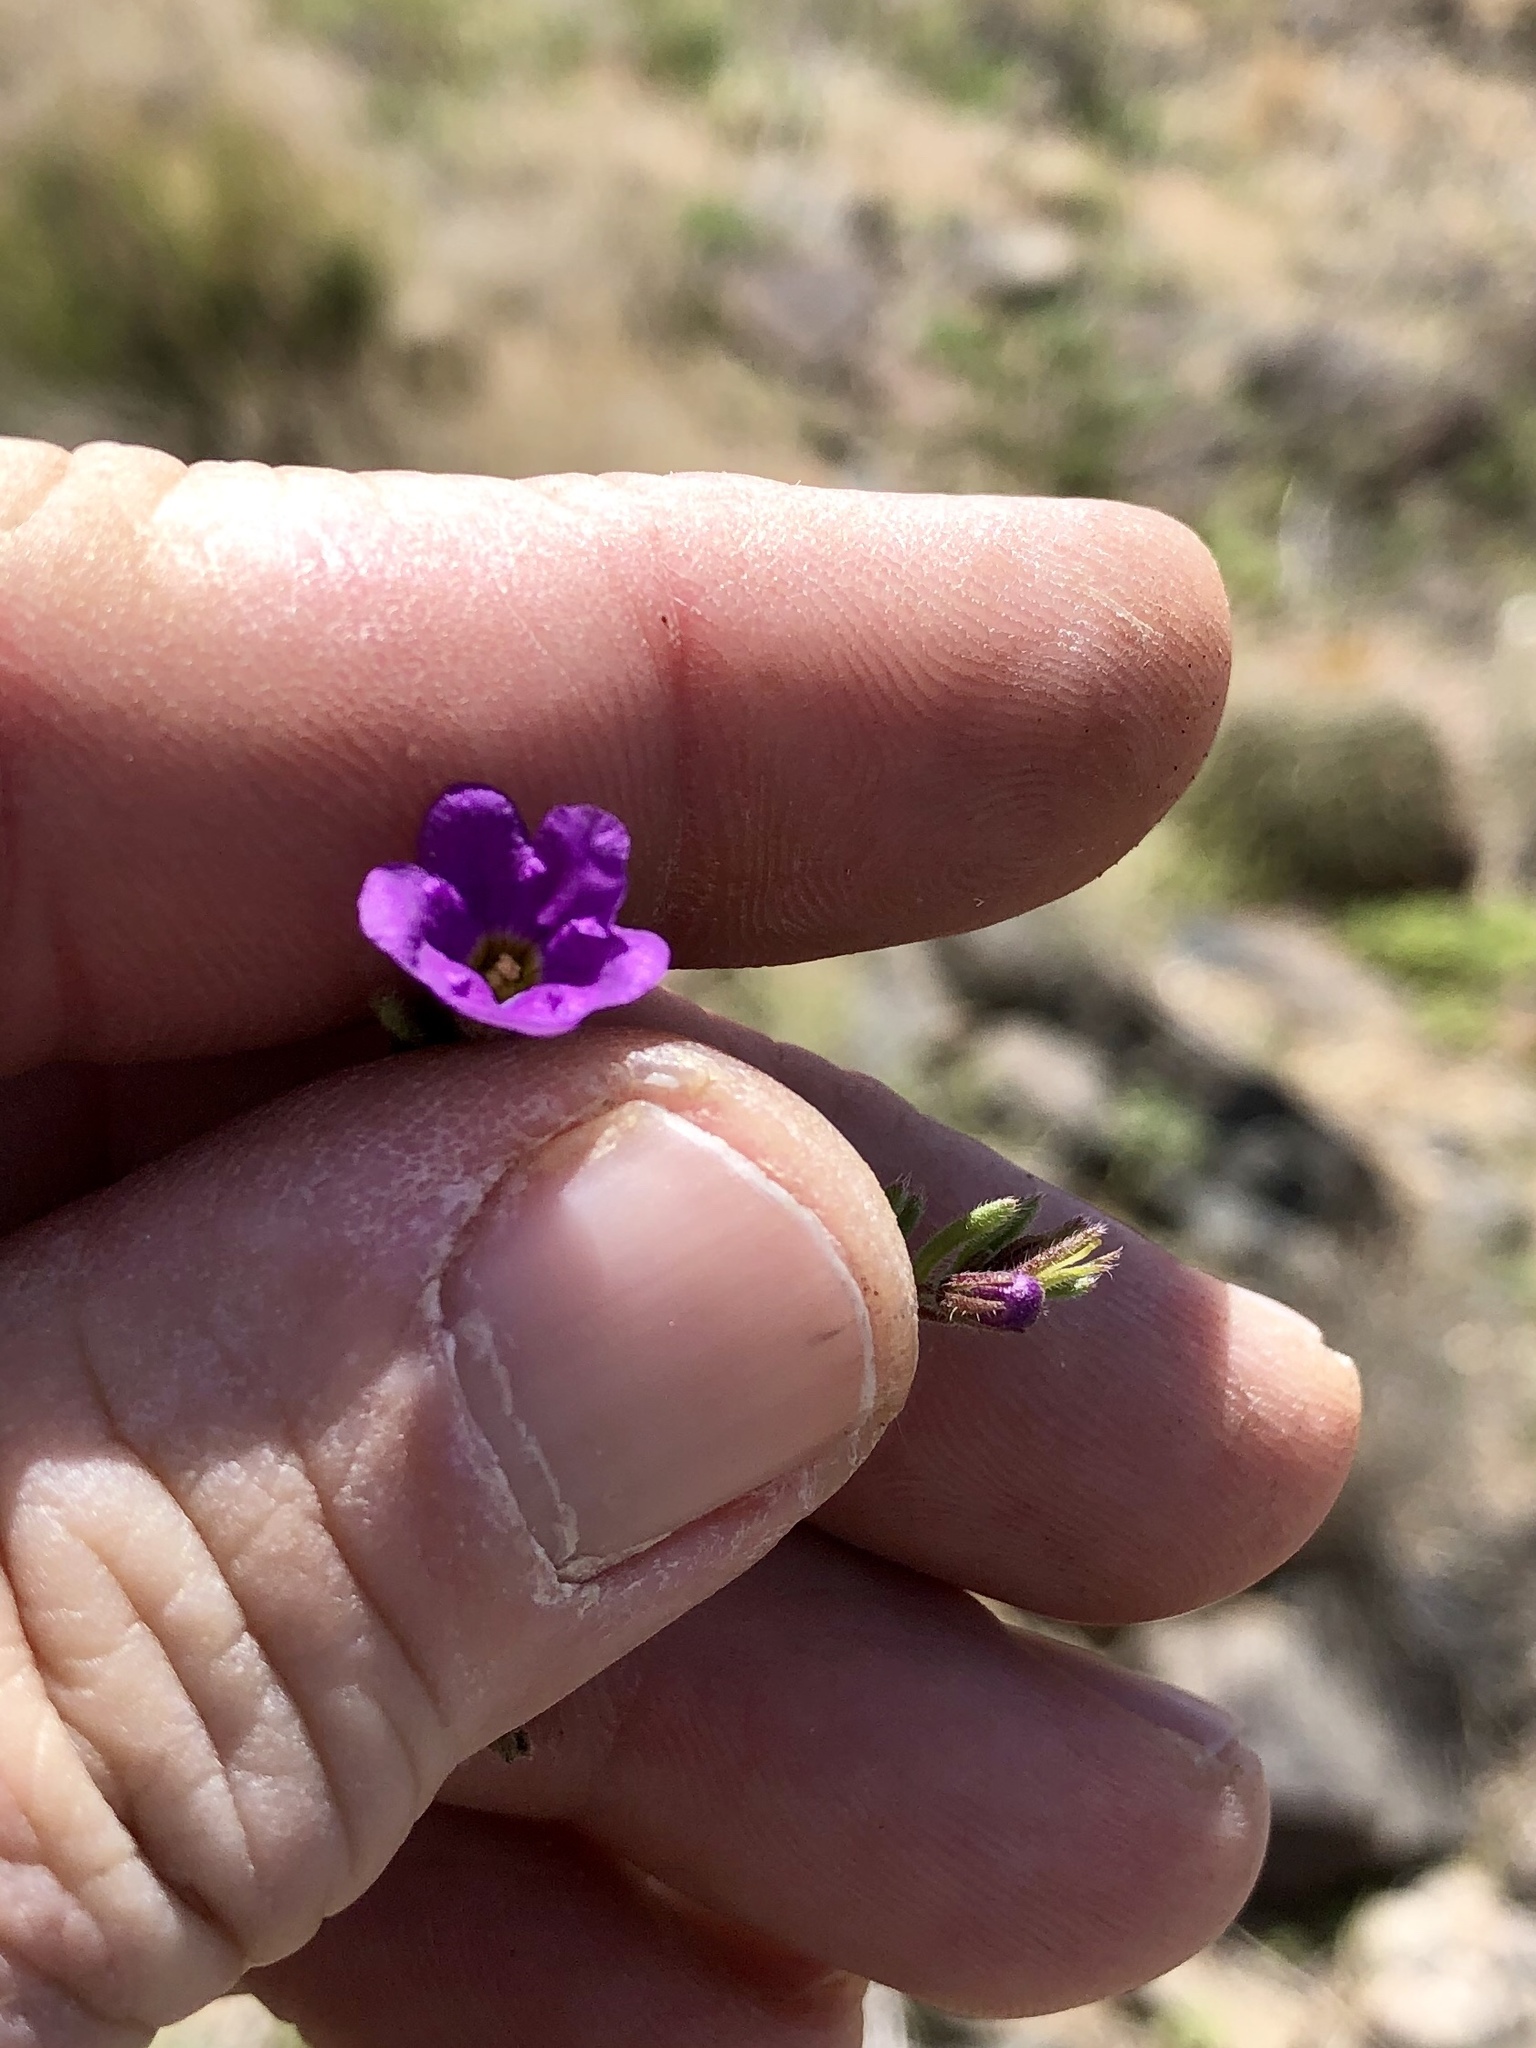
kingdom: Plantae
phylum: Tracheophyta
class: Magnoliopsida
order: Boraginales
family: Namaceae
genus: Nama
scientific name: Nama hispida
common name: Bristly nama
